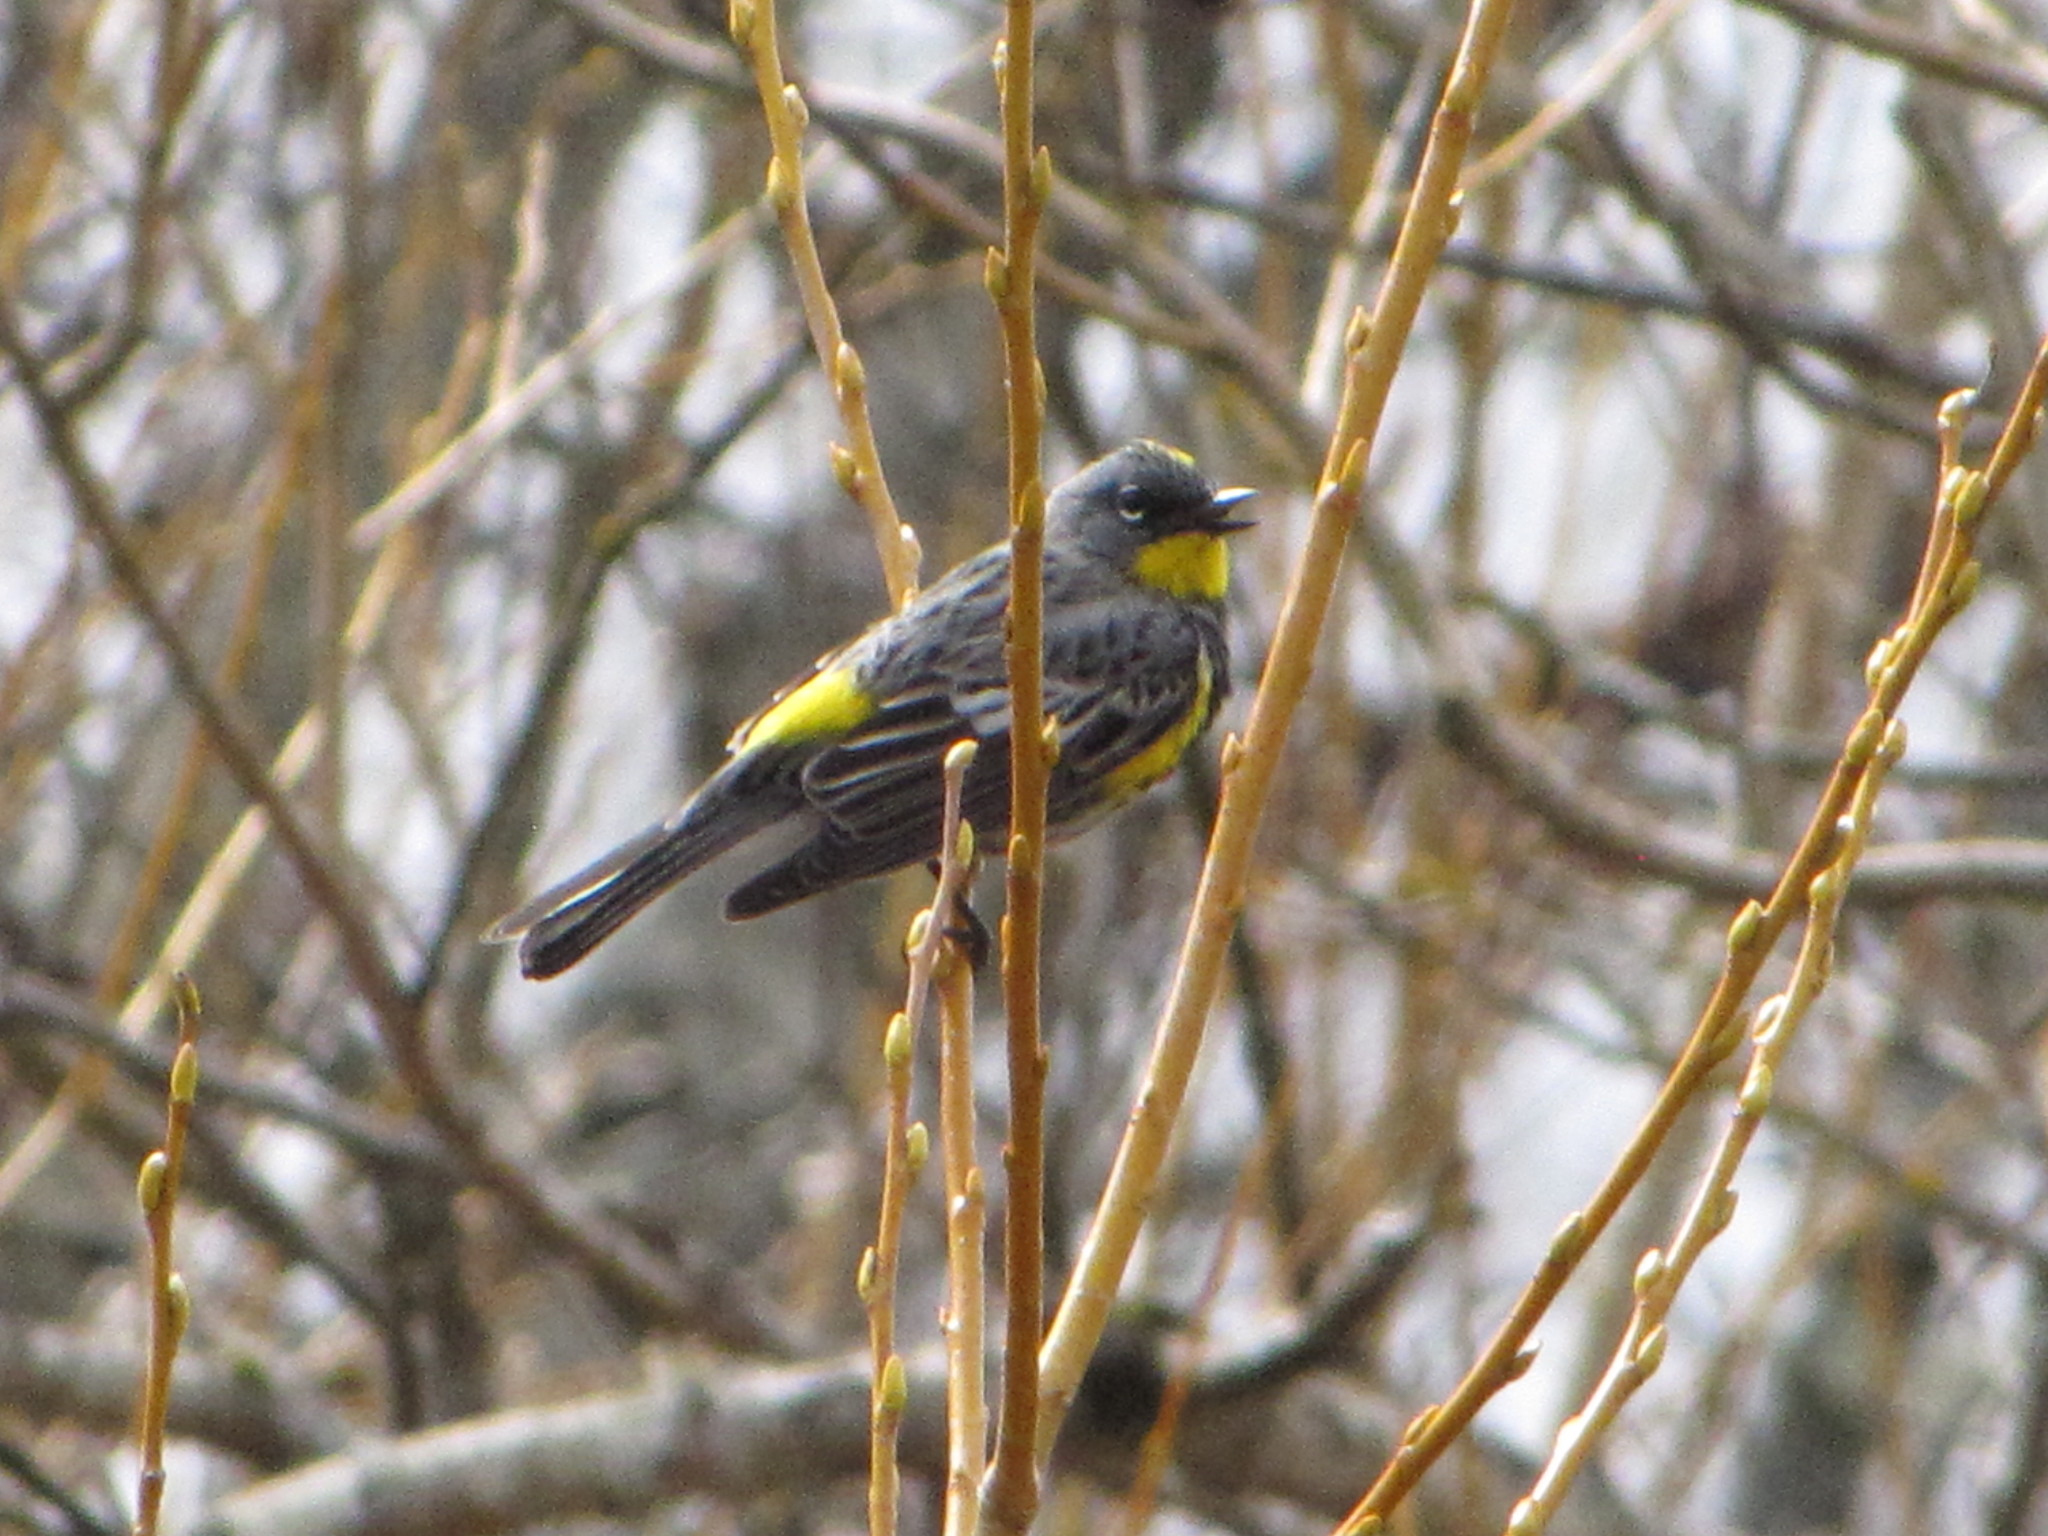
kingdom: Animalia
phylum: Chordata
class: Aves
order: Passeriformes
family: Parulidae
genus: Setophaga
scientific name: Setophaga coronata
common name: Myrtle warbler
